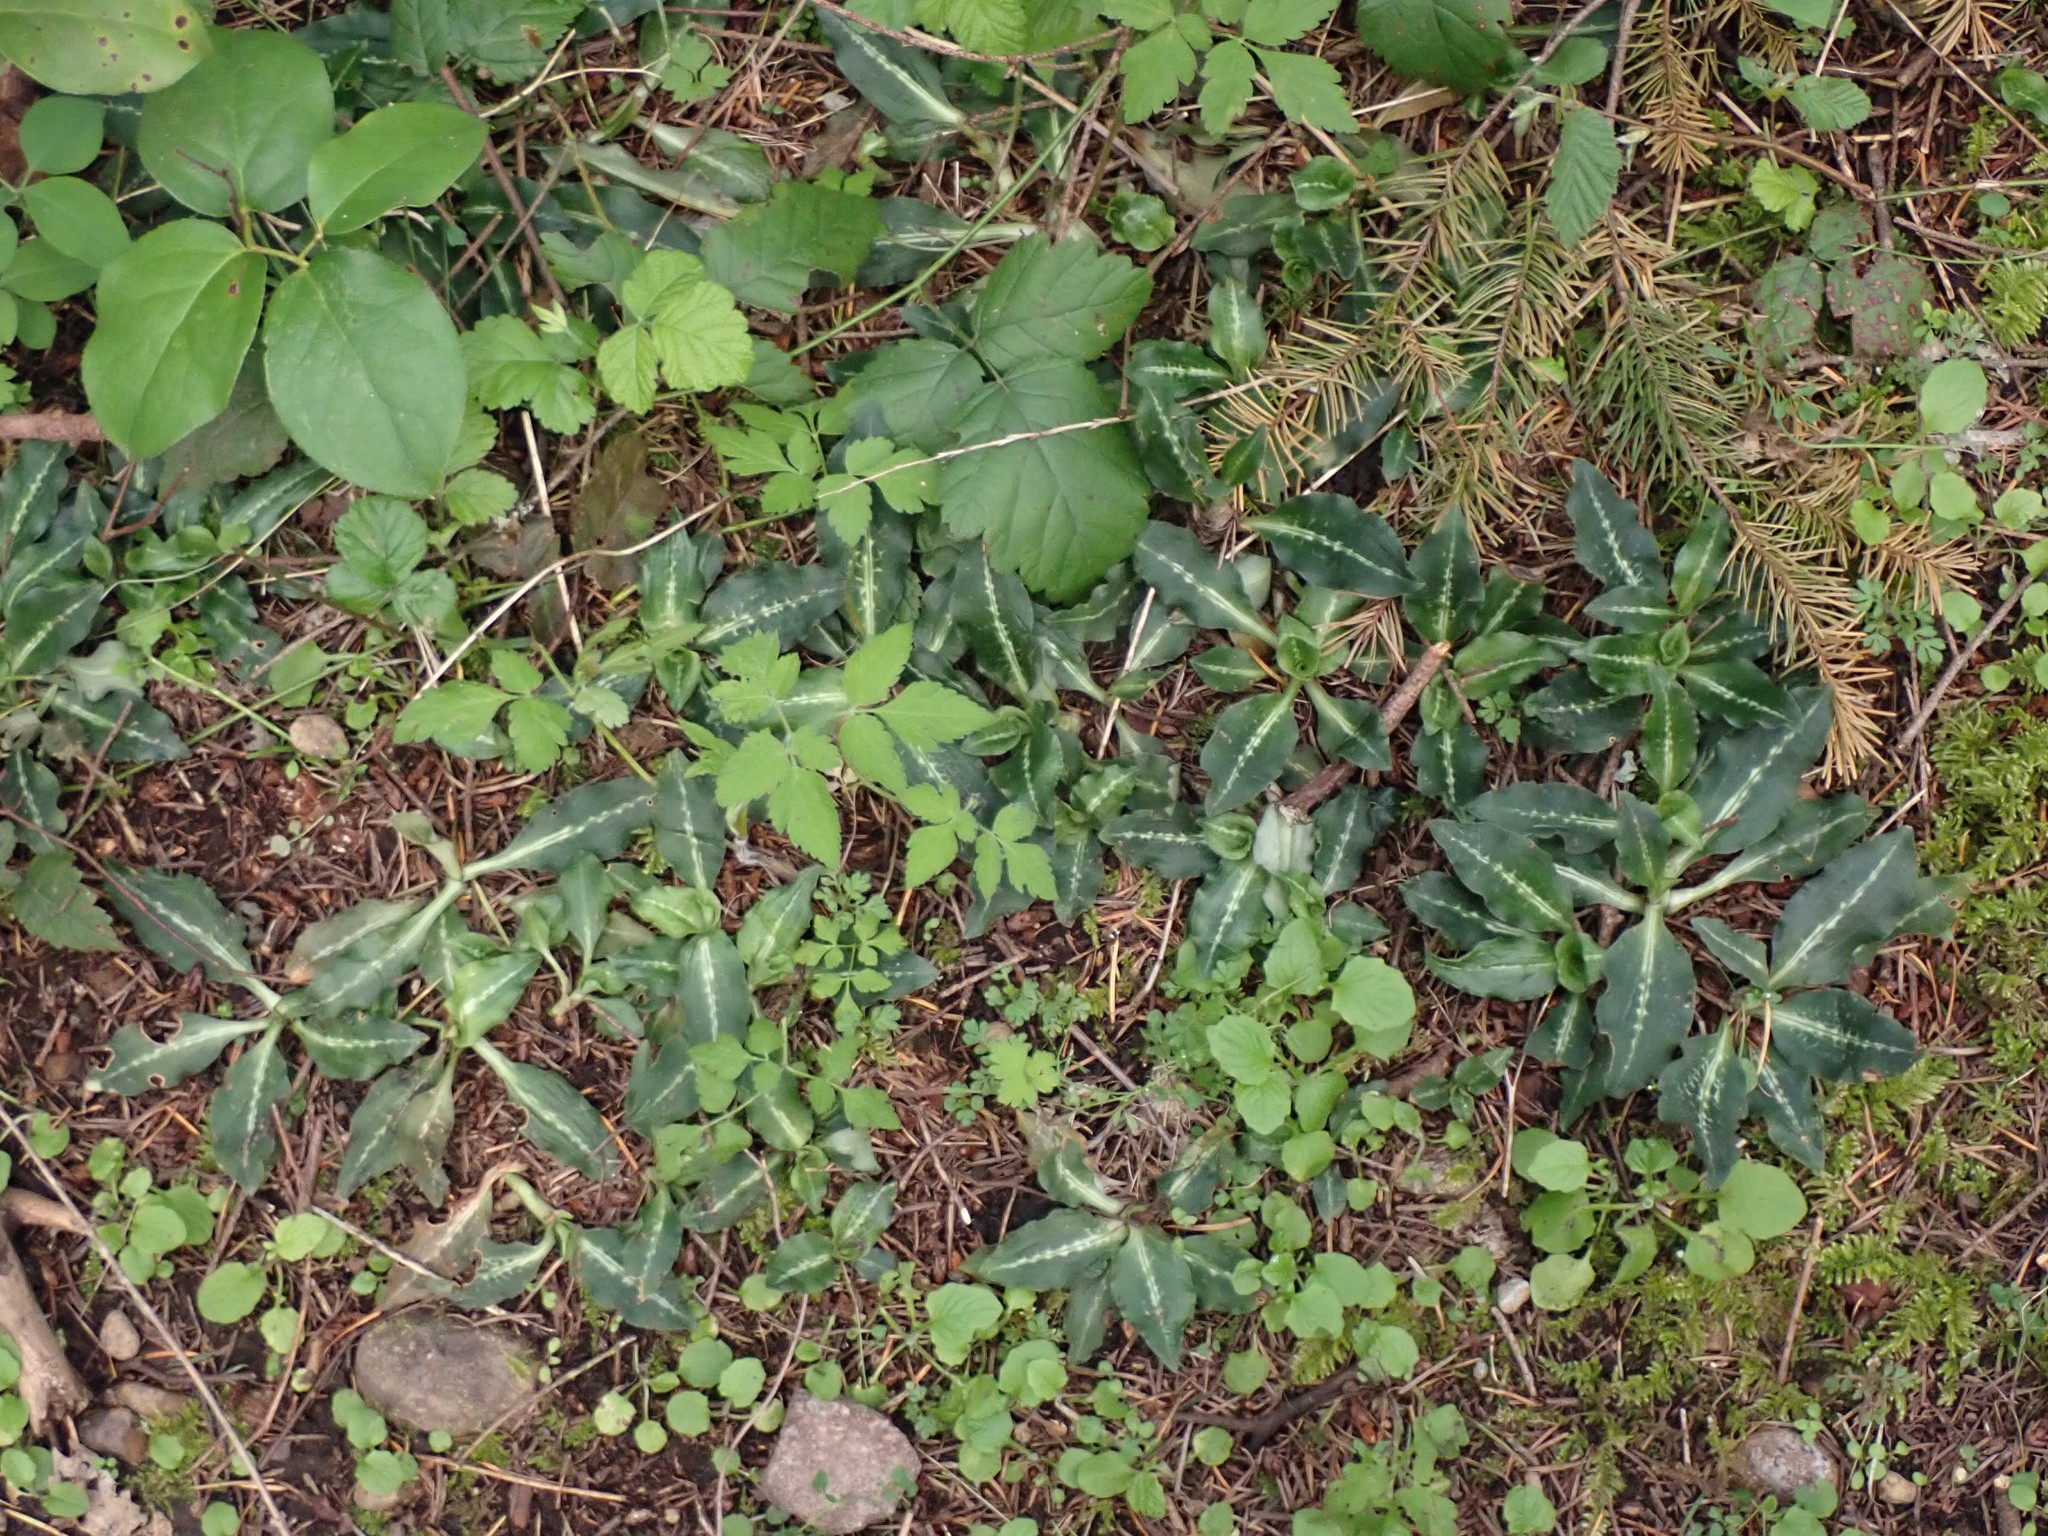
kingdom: Plantae
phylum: Tracheophyta
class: Liliopsida
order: Asparagales
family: Orchidaceae
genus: Goodyera
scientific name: Goodyera oblongifolia
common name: Giant rattlesnake-plantain
